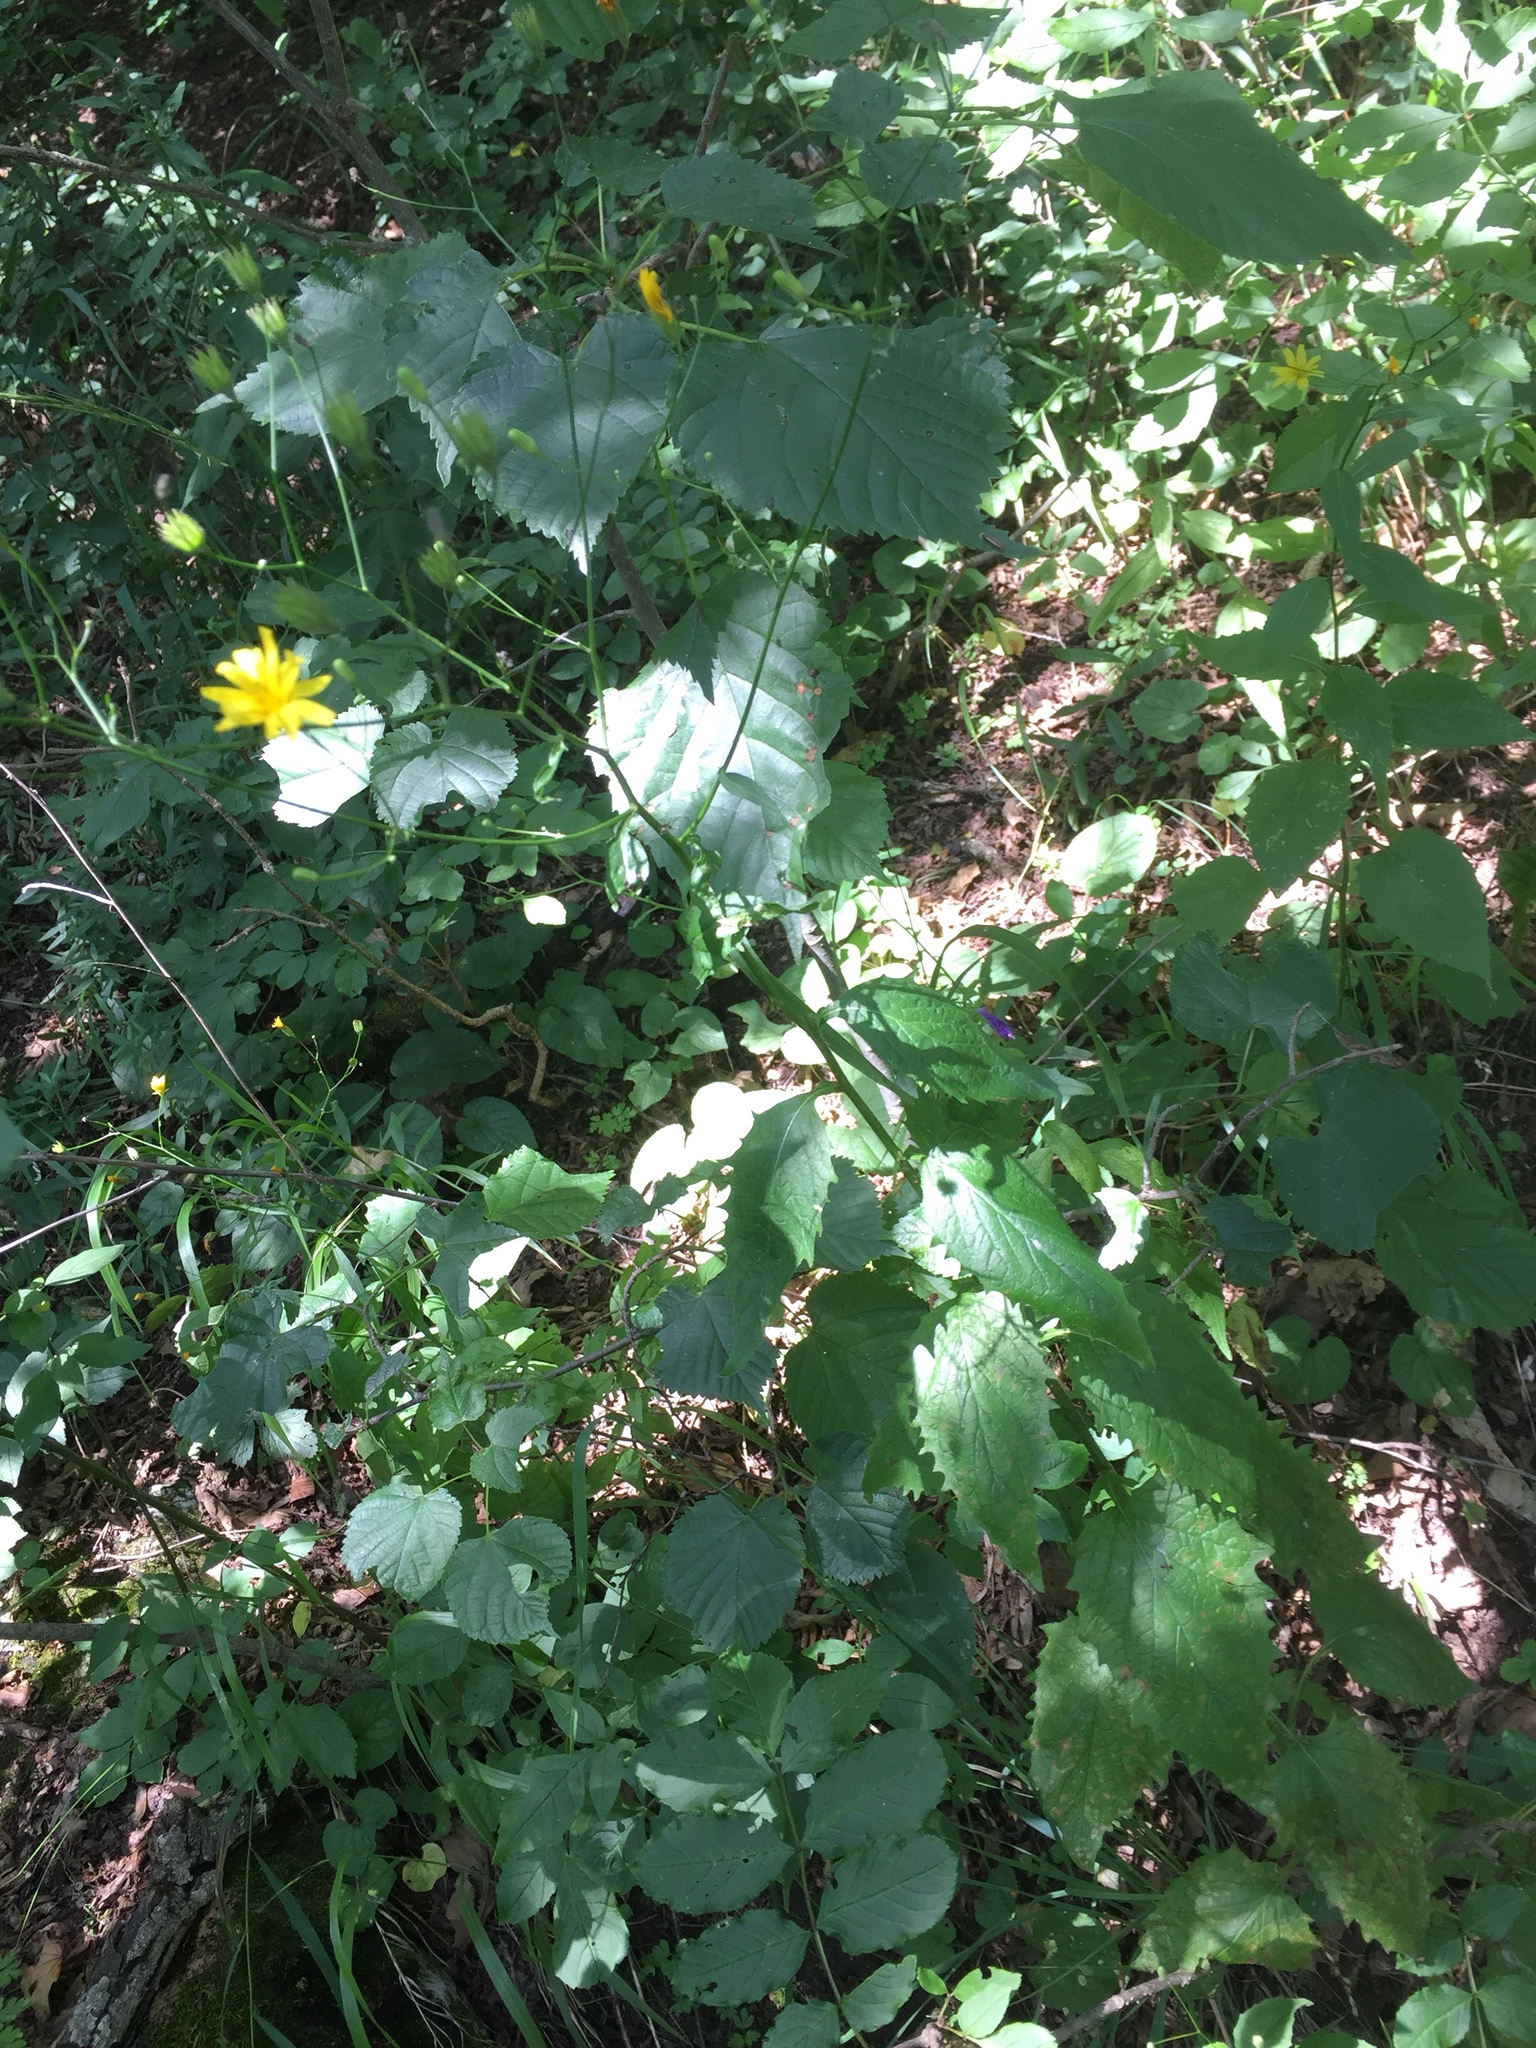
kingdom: Plantae
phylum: Tracheophyta
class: Magnoliopsida
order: Asterales
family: Asteraceae
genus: Lapsana
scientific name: Lapsana communis
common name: Nipplewort
